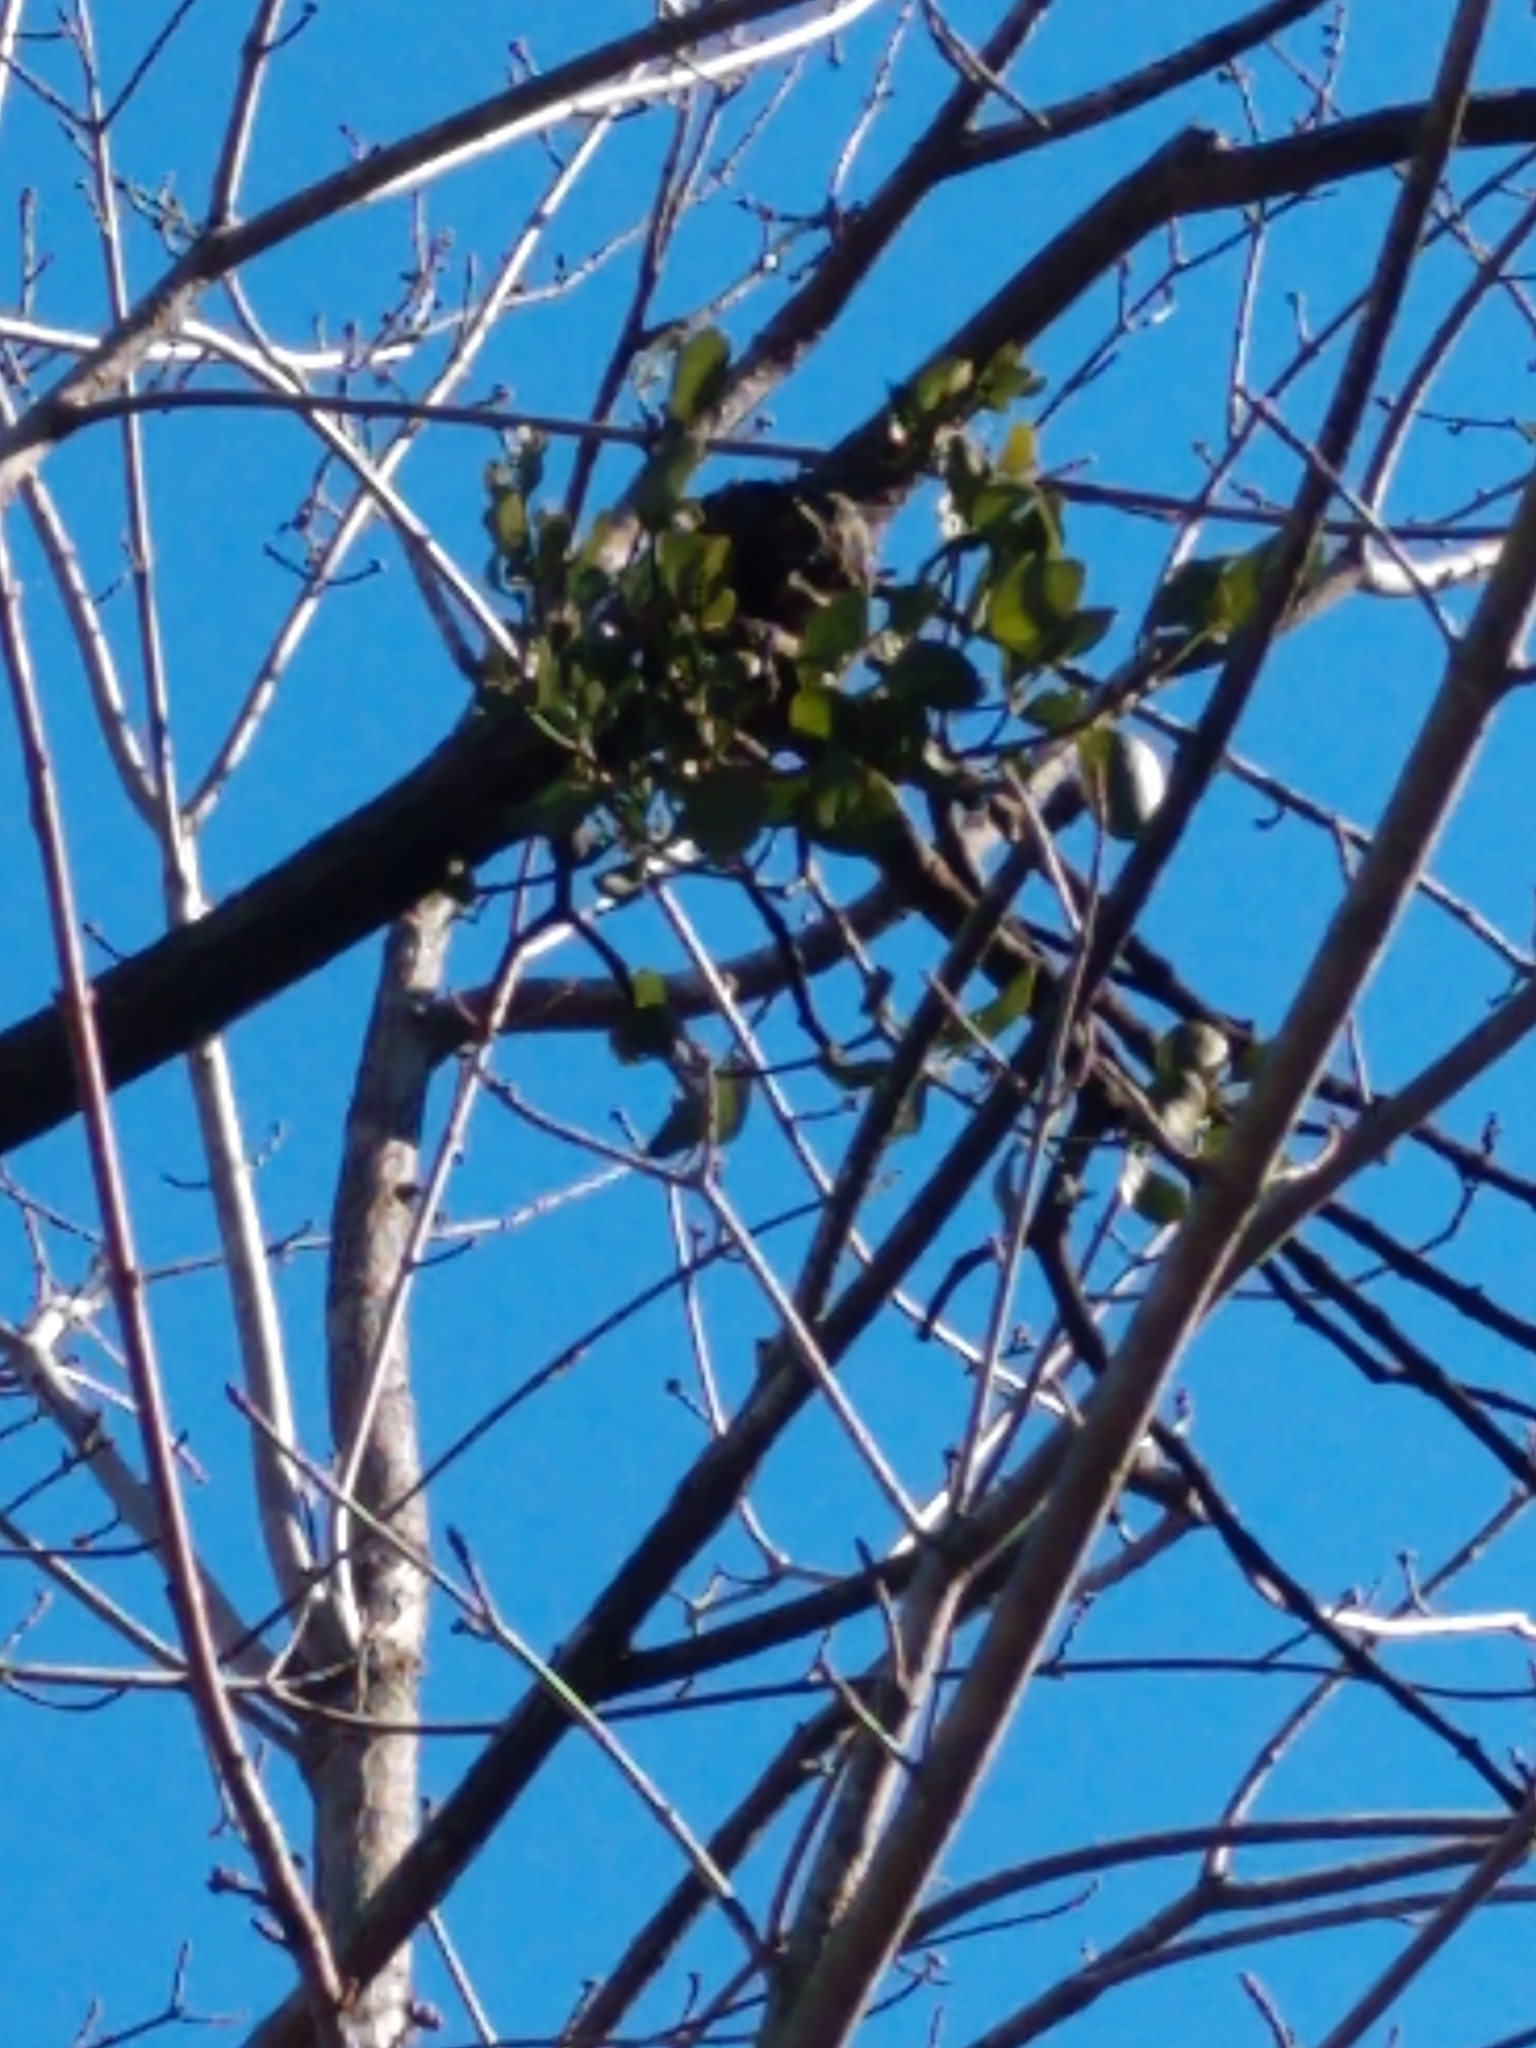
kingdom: Plantae
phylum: Tracheophyta
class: Magnoliopsida
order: Santalales
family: Viscaceae
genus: Phoradendron
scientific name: Phoradendron leucarpum
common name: Pacific mistletoe
